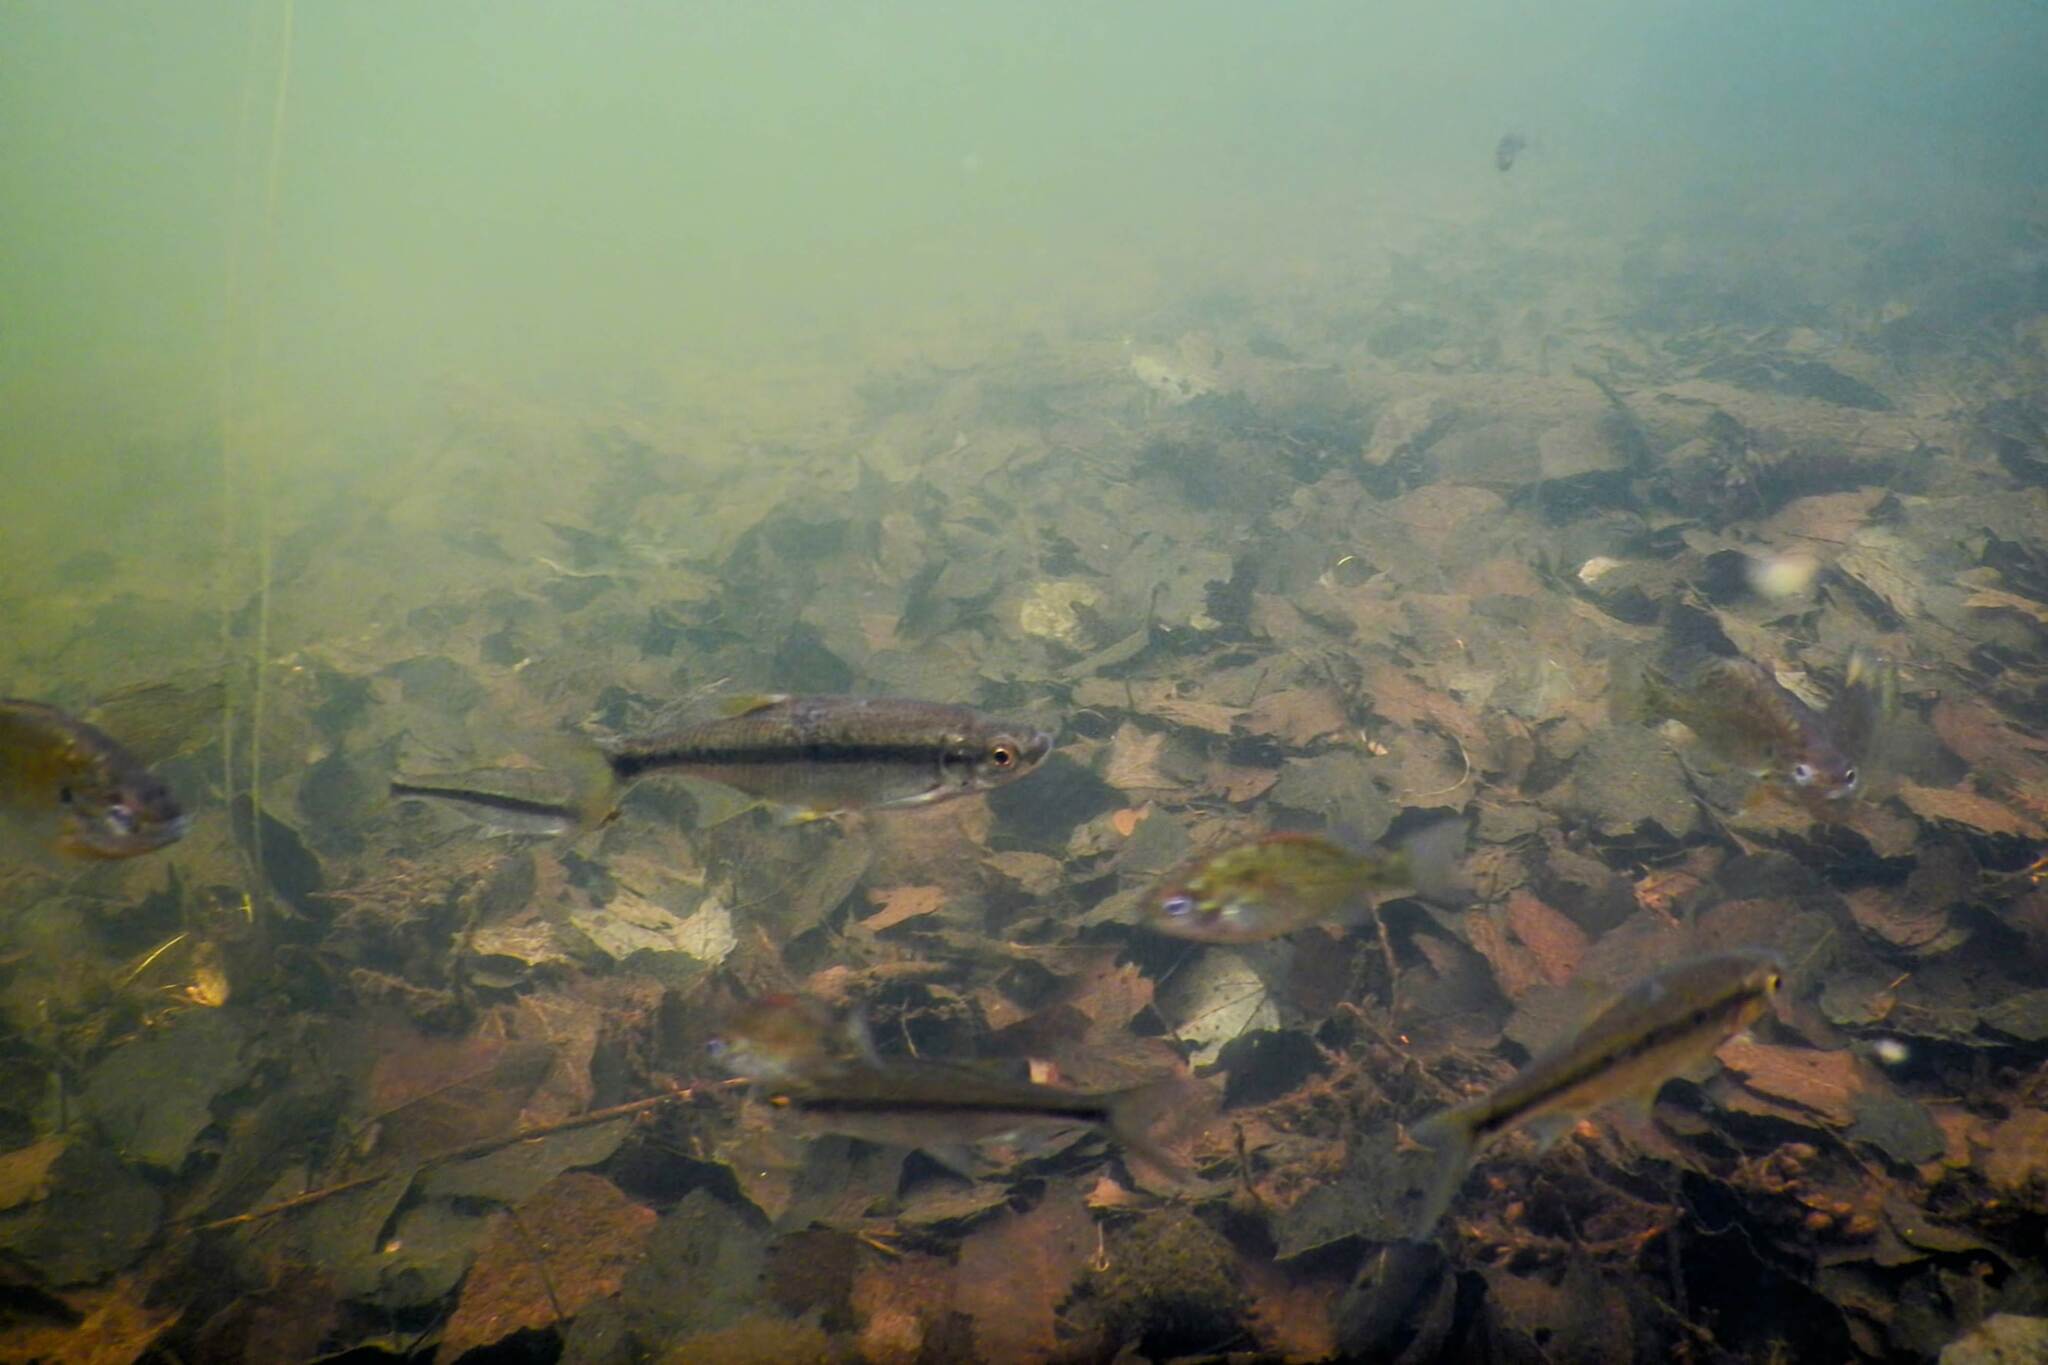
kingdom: Animalia
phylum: Chordata
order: Cypriniformes
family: Cyprinidae
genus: Notemigonus
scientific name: Notemigonus crysoleucas
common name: Golden shiner
